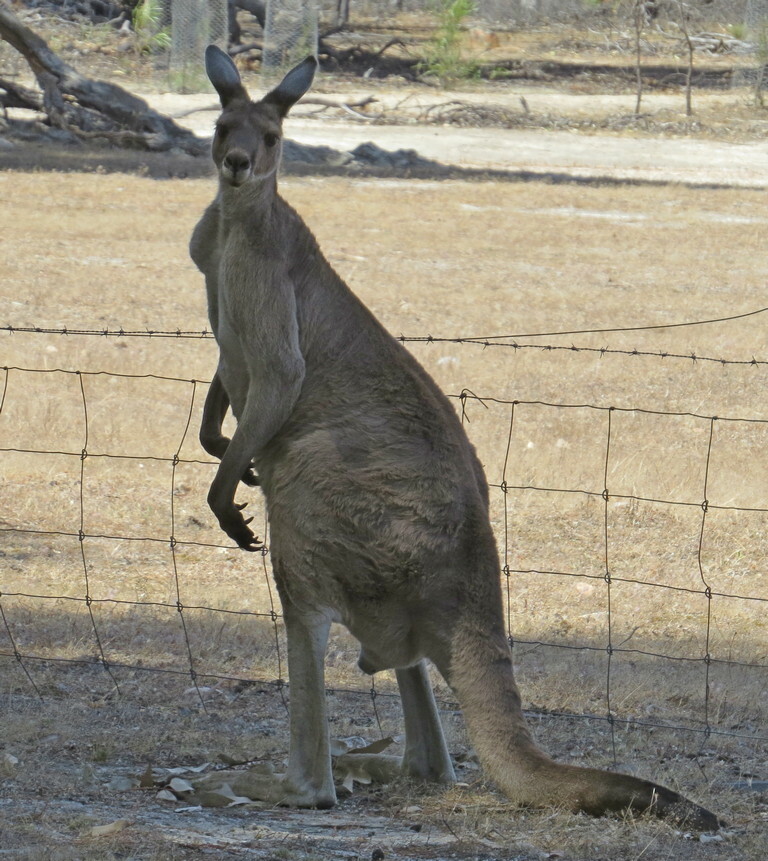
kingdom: Animalia
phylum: Chordata
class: Mammalia
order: Diprotodontia
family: Macropodidae
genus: Macropus
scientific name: Macropus fuliginosus
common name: Western grey kangaroo
